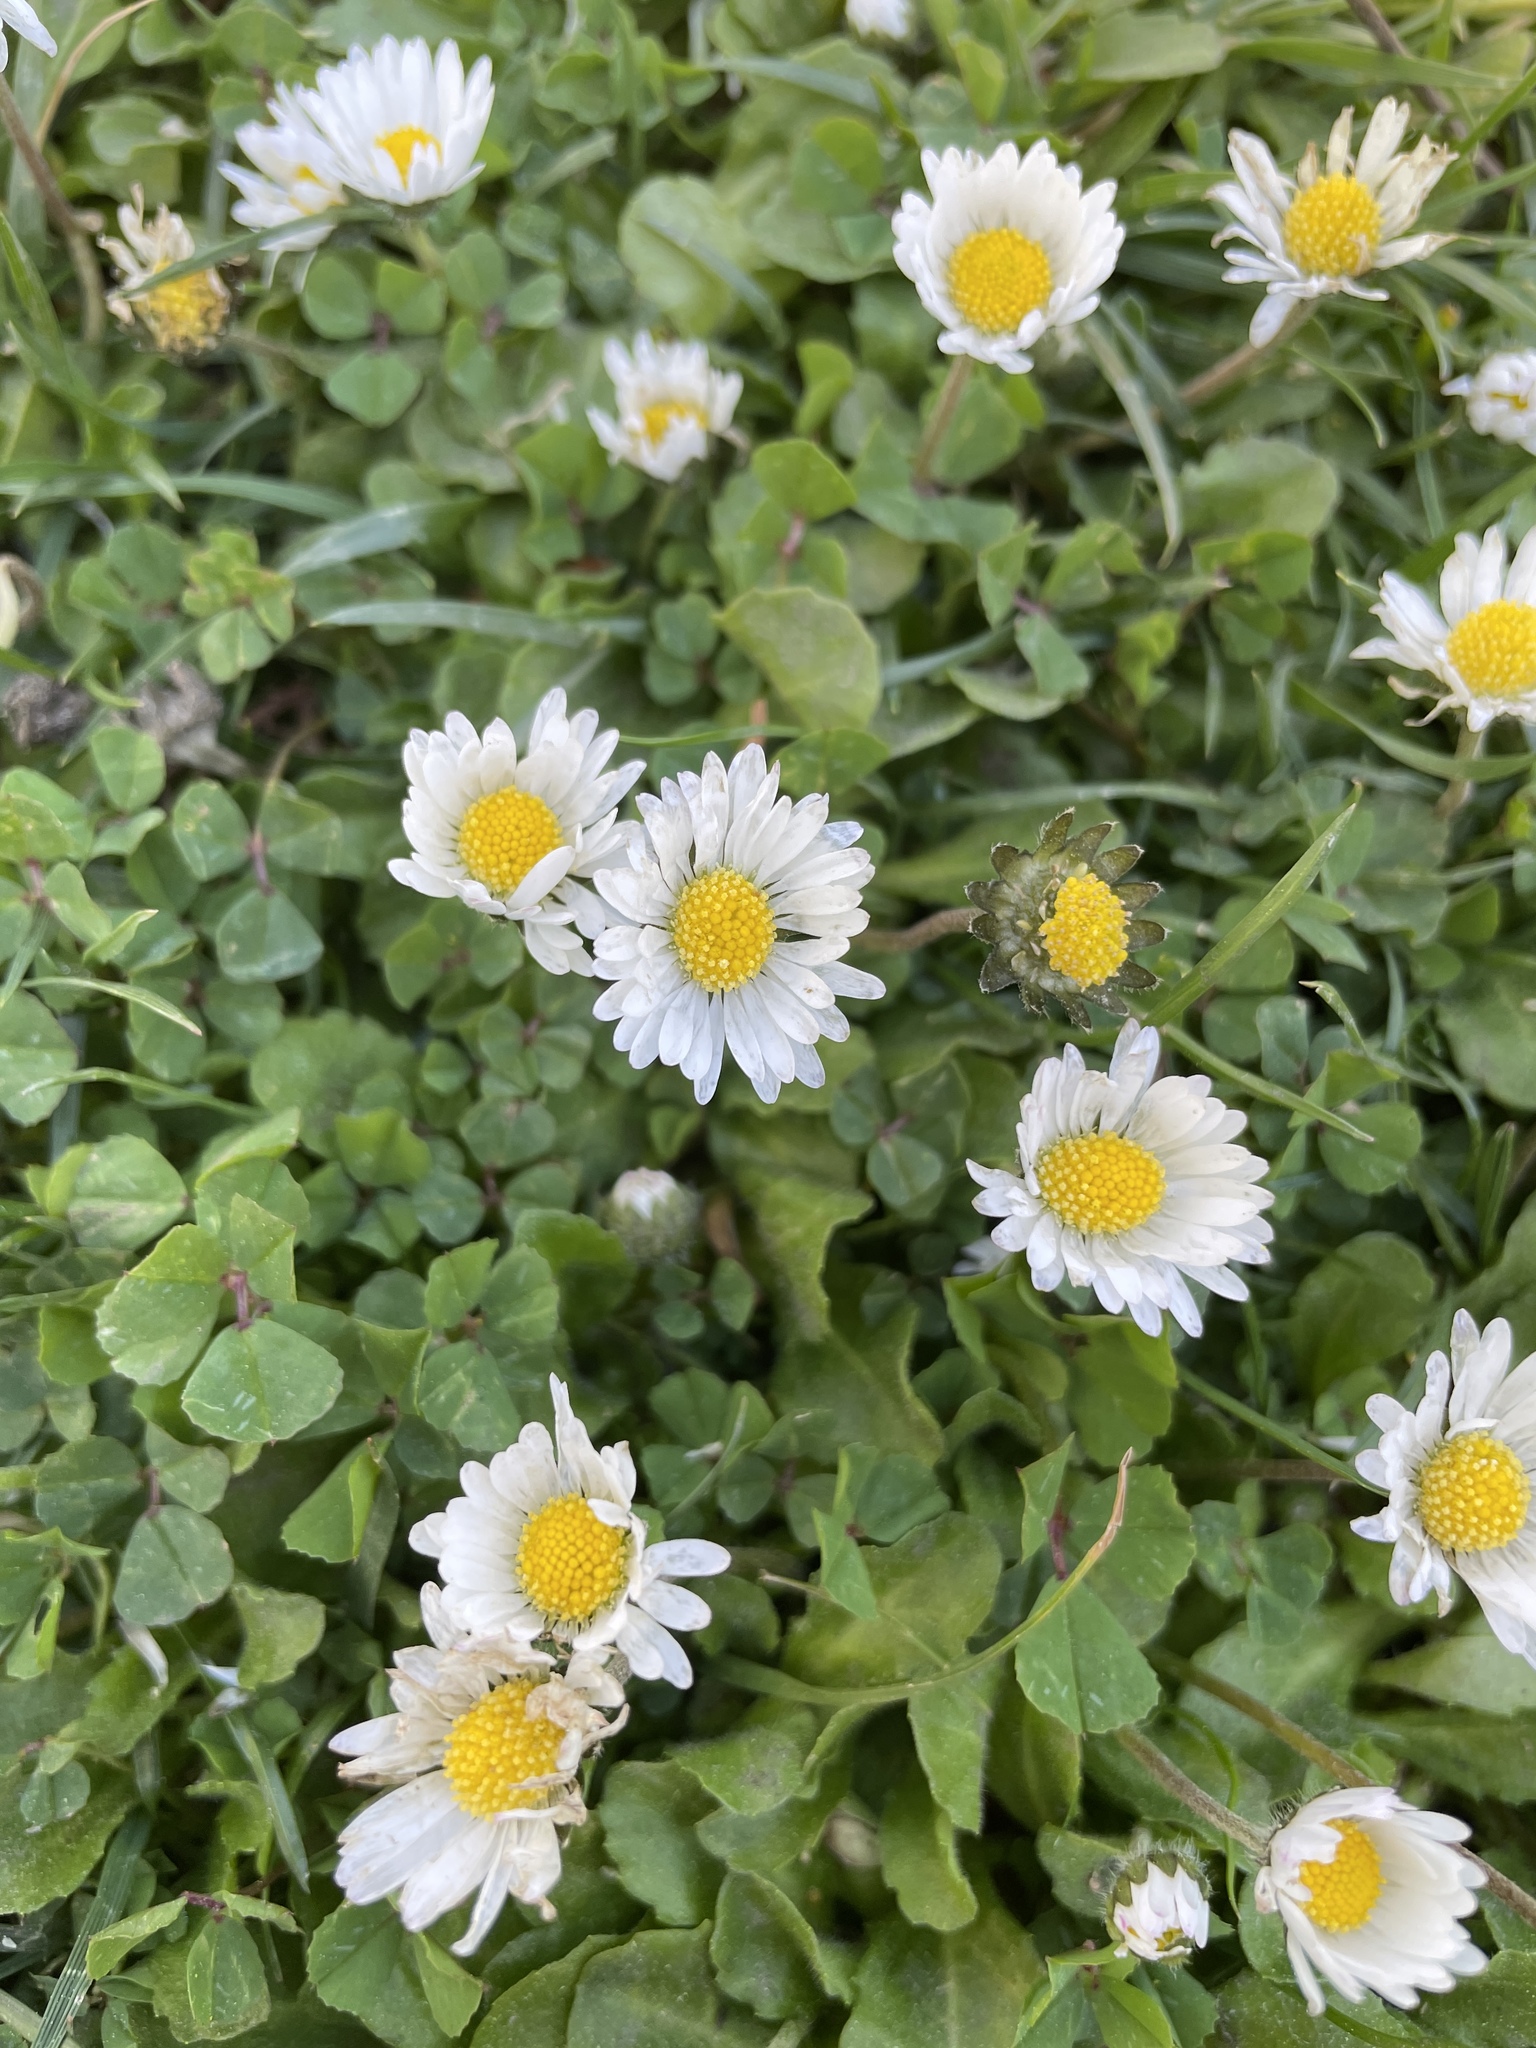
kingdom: Plantae
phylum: Tracheophyta
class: Magnoliopsida
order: Asterales
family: Asteraceae
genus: Bellis
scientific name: Bellis perennis
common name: Lawndaisy
